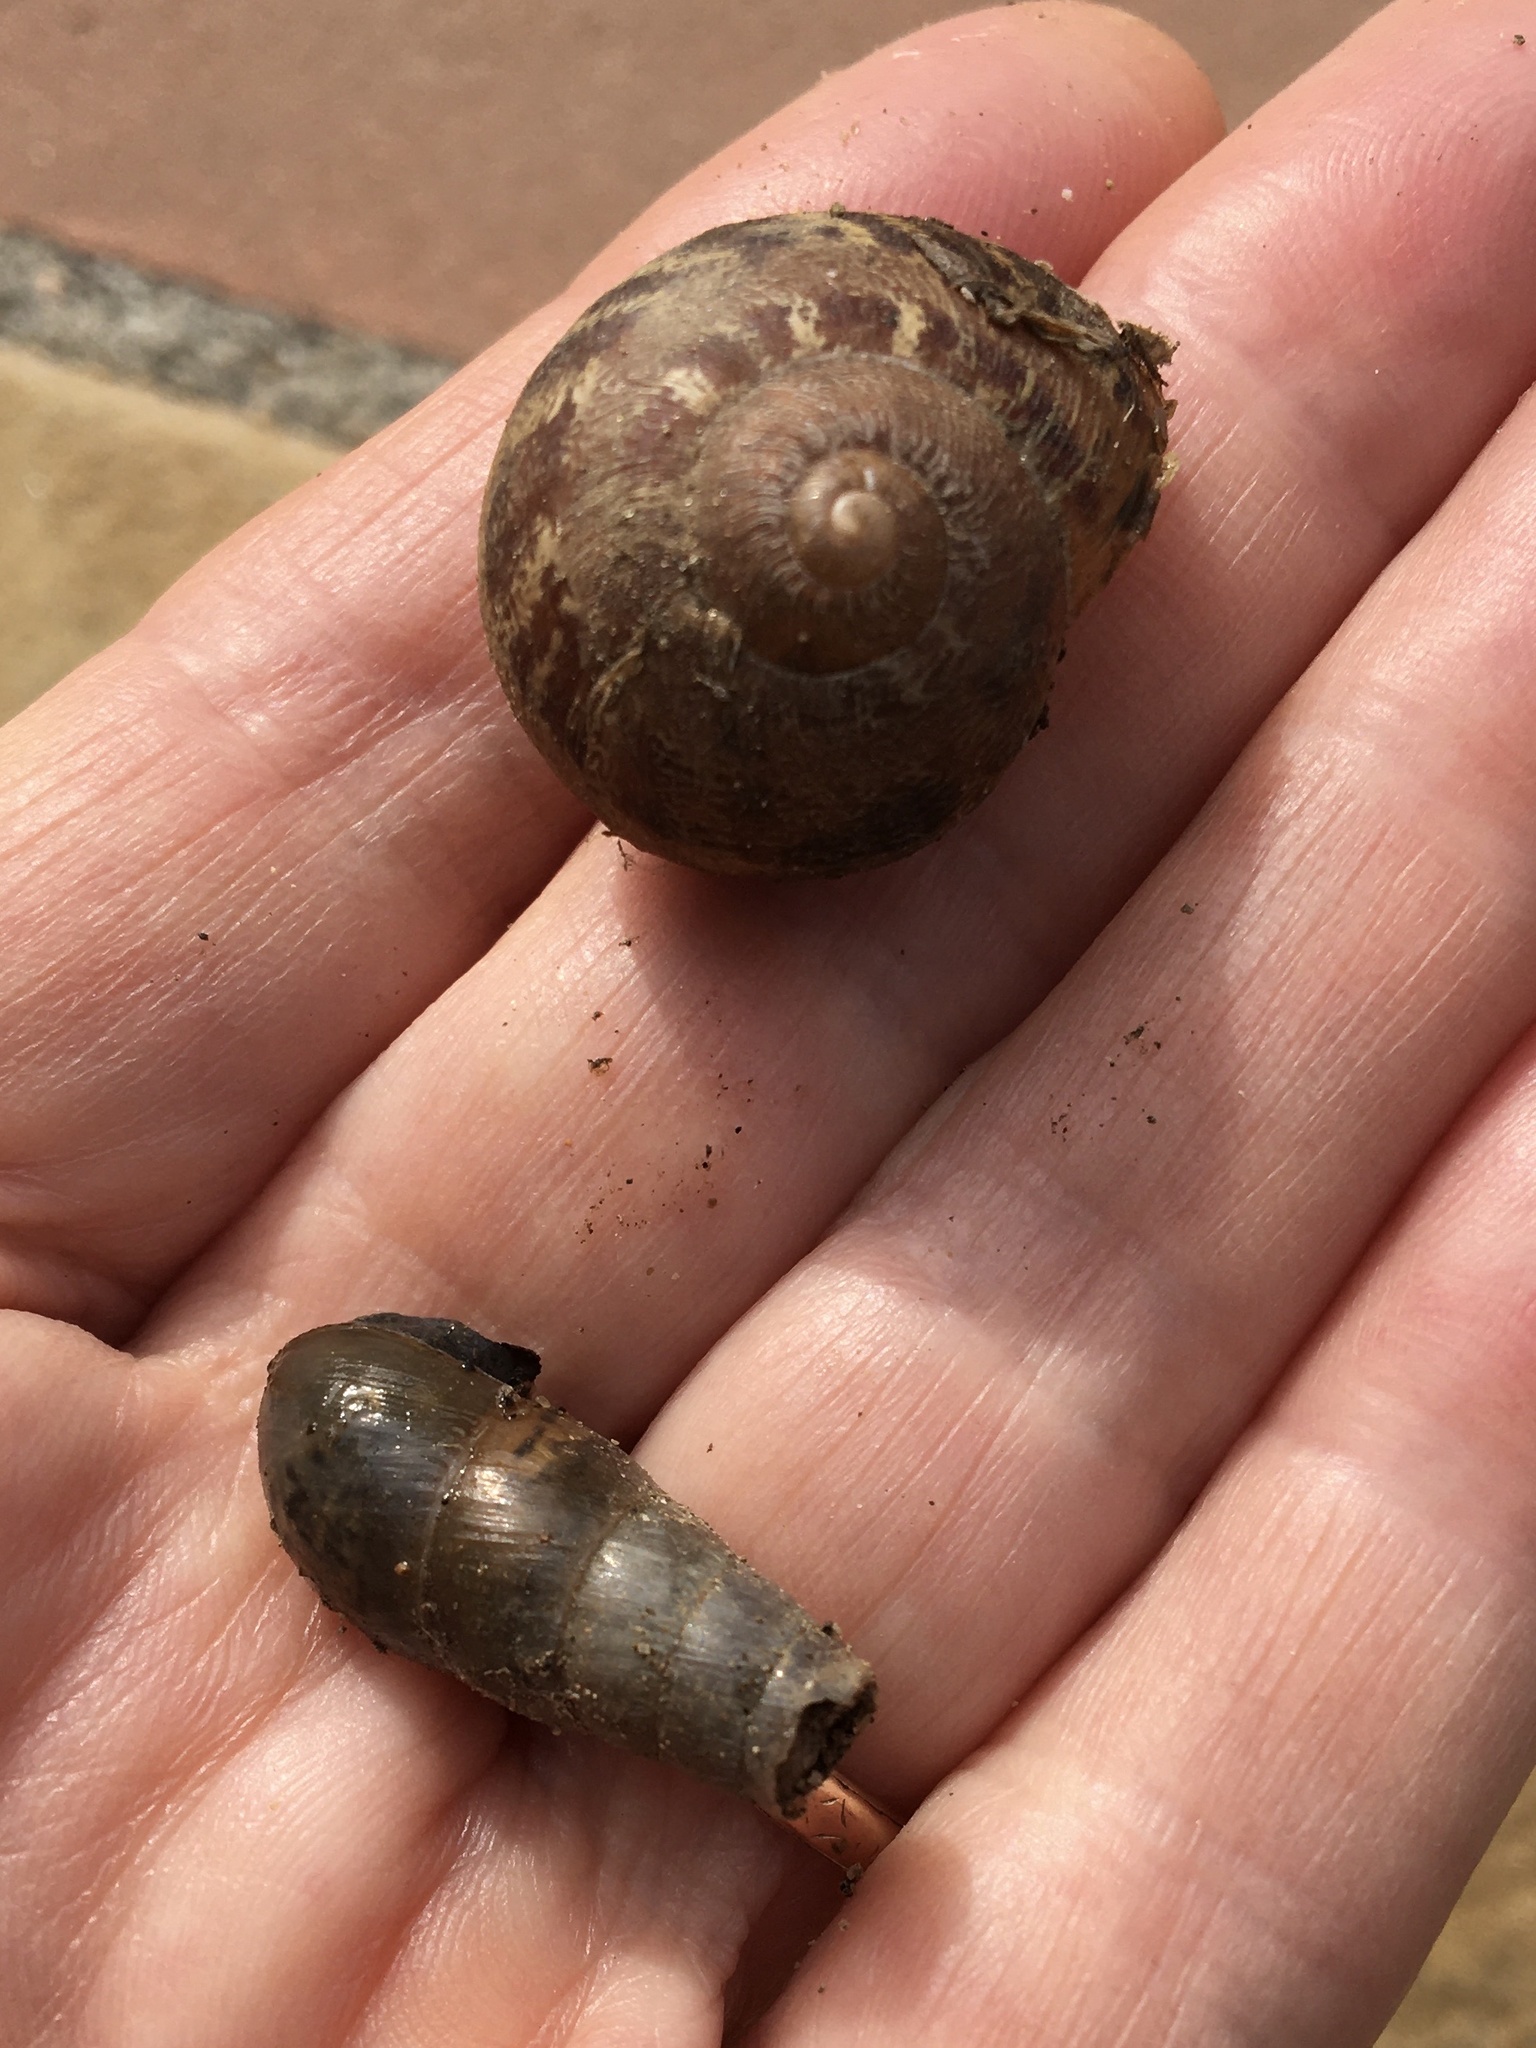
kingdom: Animalia
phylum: Mollusca
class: Gastropoda
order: Stylommatophora
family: Helicidae
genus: Cornu
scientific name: Cornu aspersum
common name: Brown garden snail
